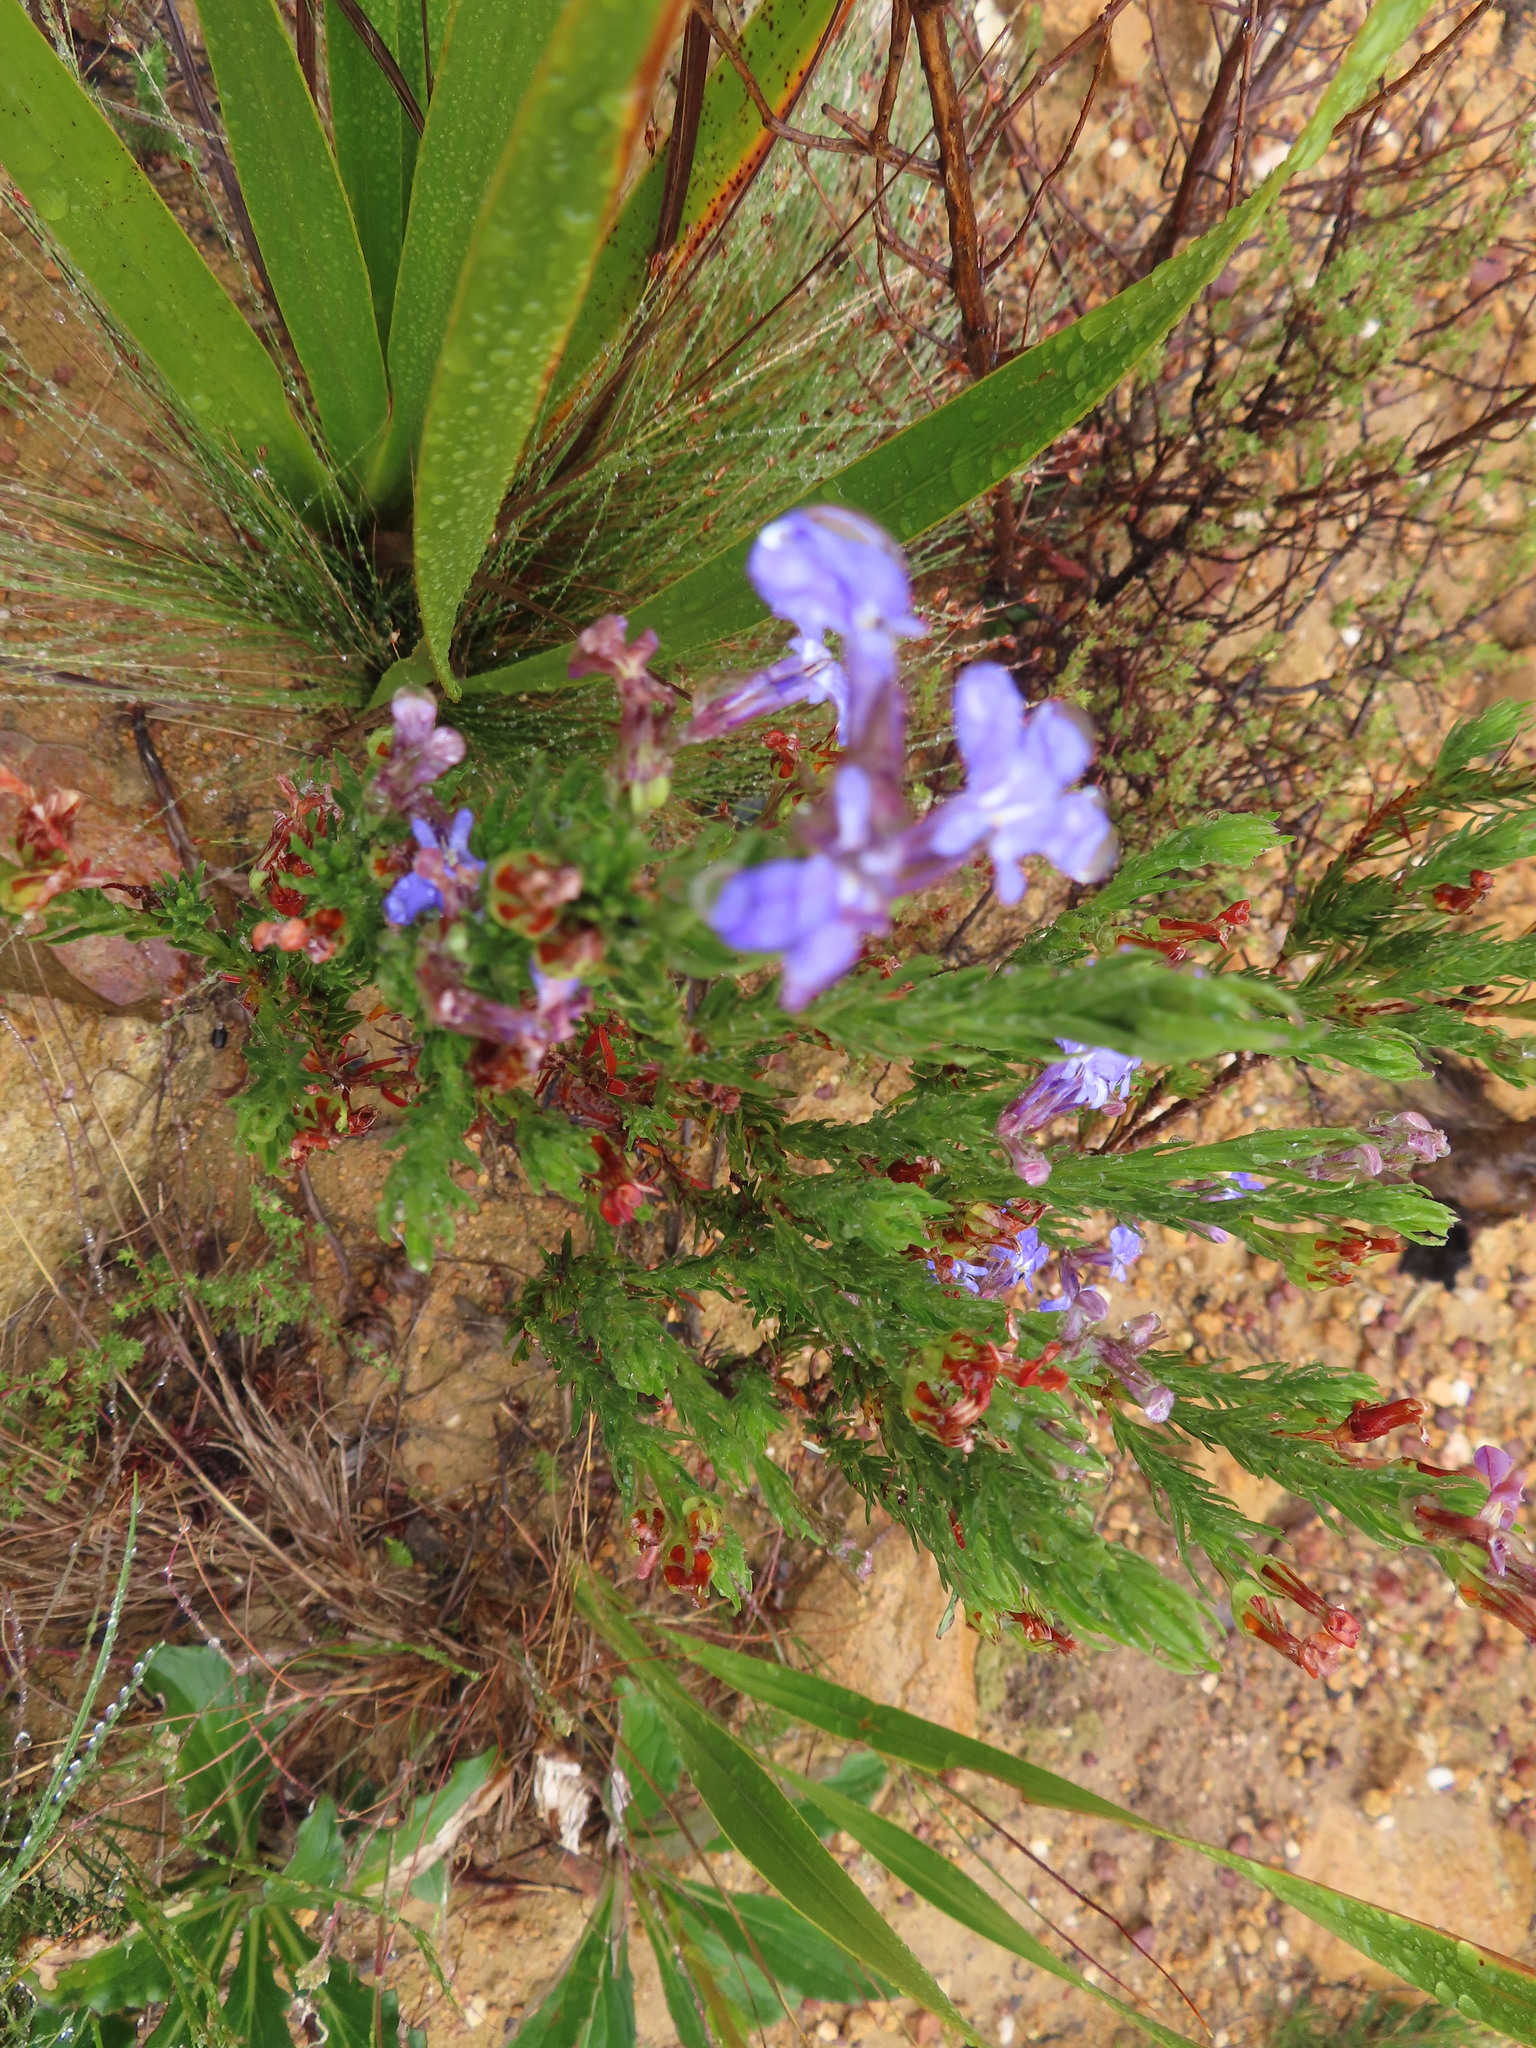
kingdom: Plantae
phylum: Tracheophyta
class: Magnoliopsida
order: Asterales
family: Campanulaceae
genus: Lobelia
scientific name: Lobelia pinifolia
